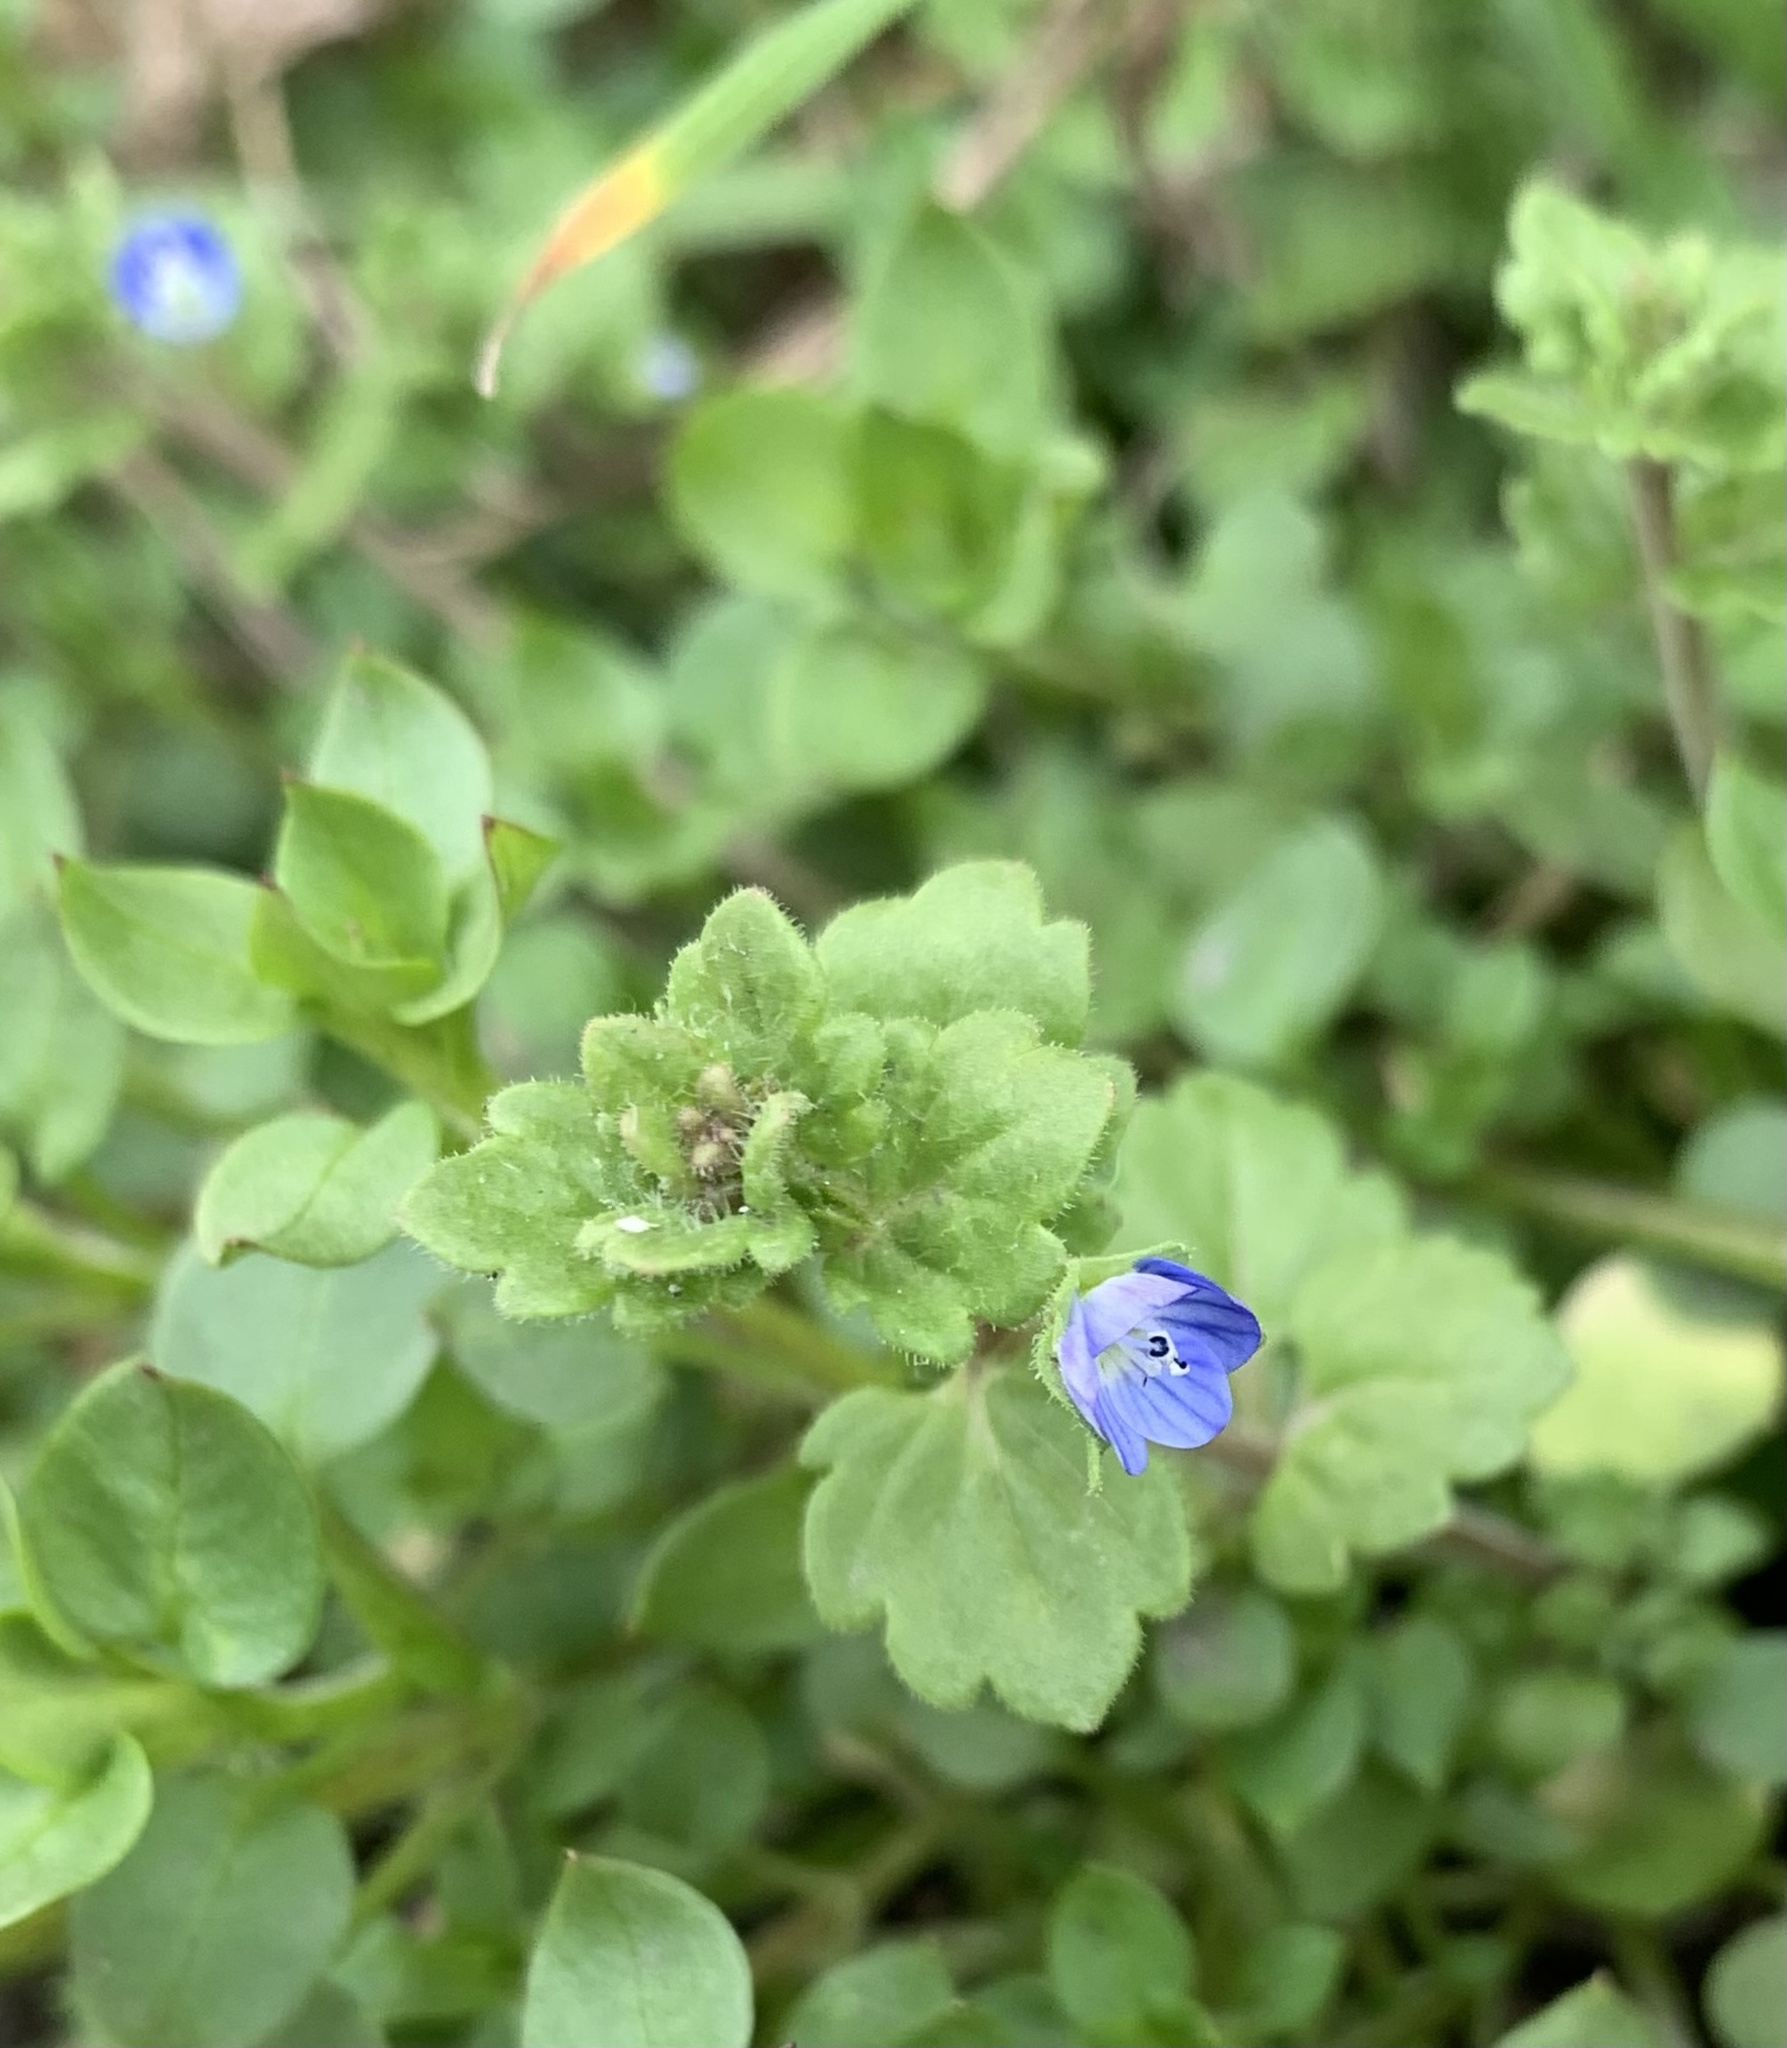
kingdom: Plantae
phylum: Tracheophyta
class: Magnoliopsida
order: Lamiales
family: Plantaginaceae
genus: Veronica
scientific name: Veronica polita
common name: Grey field-speedwell
